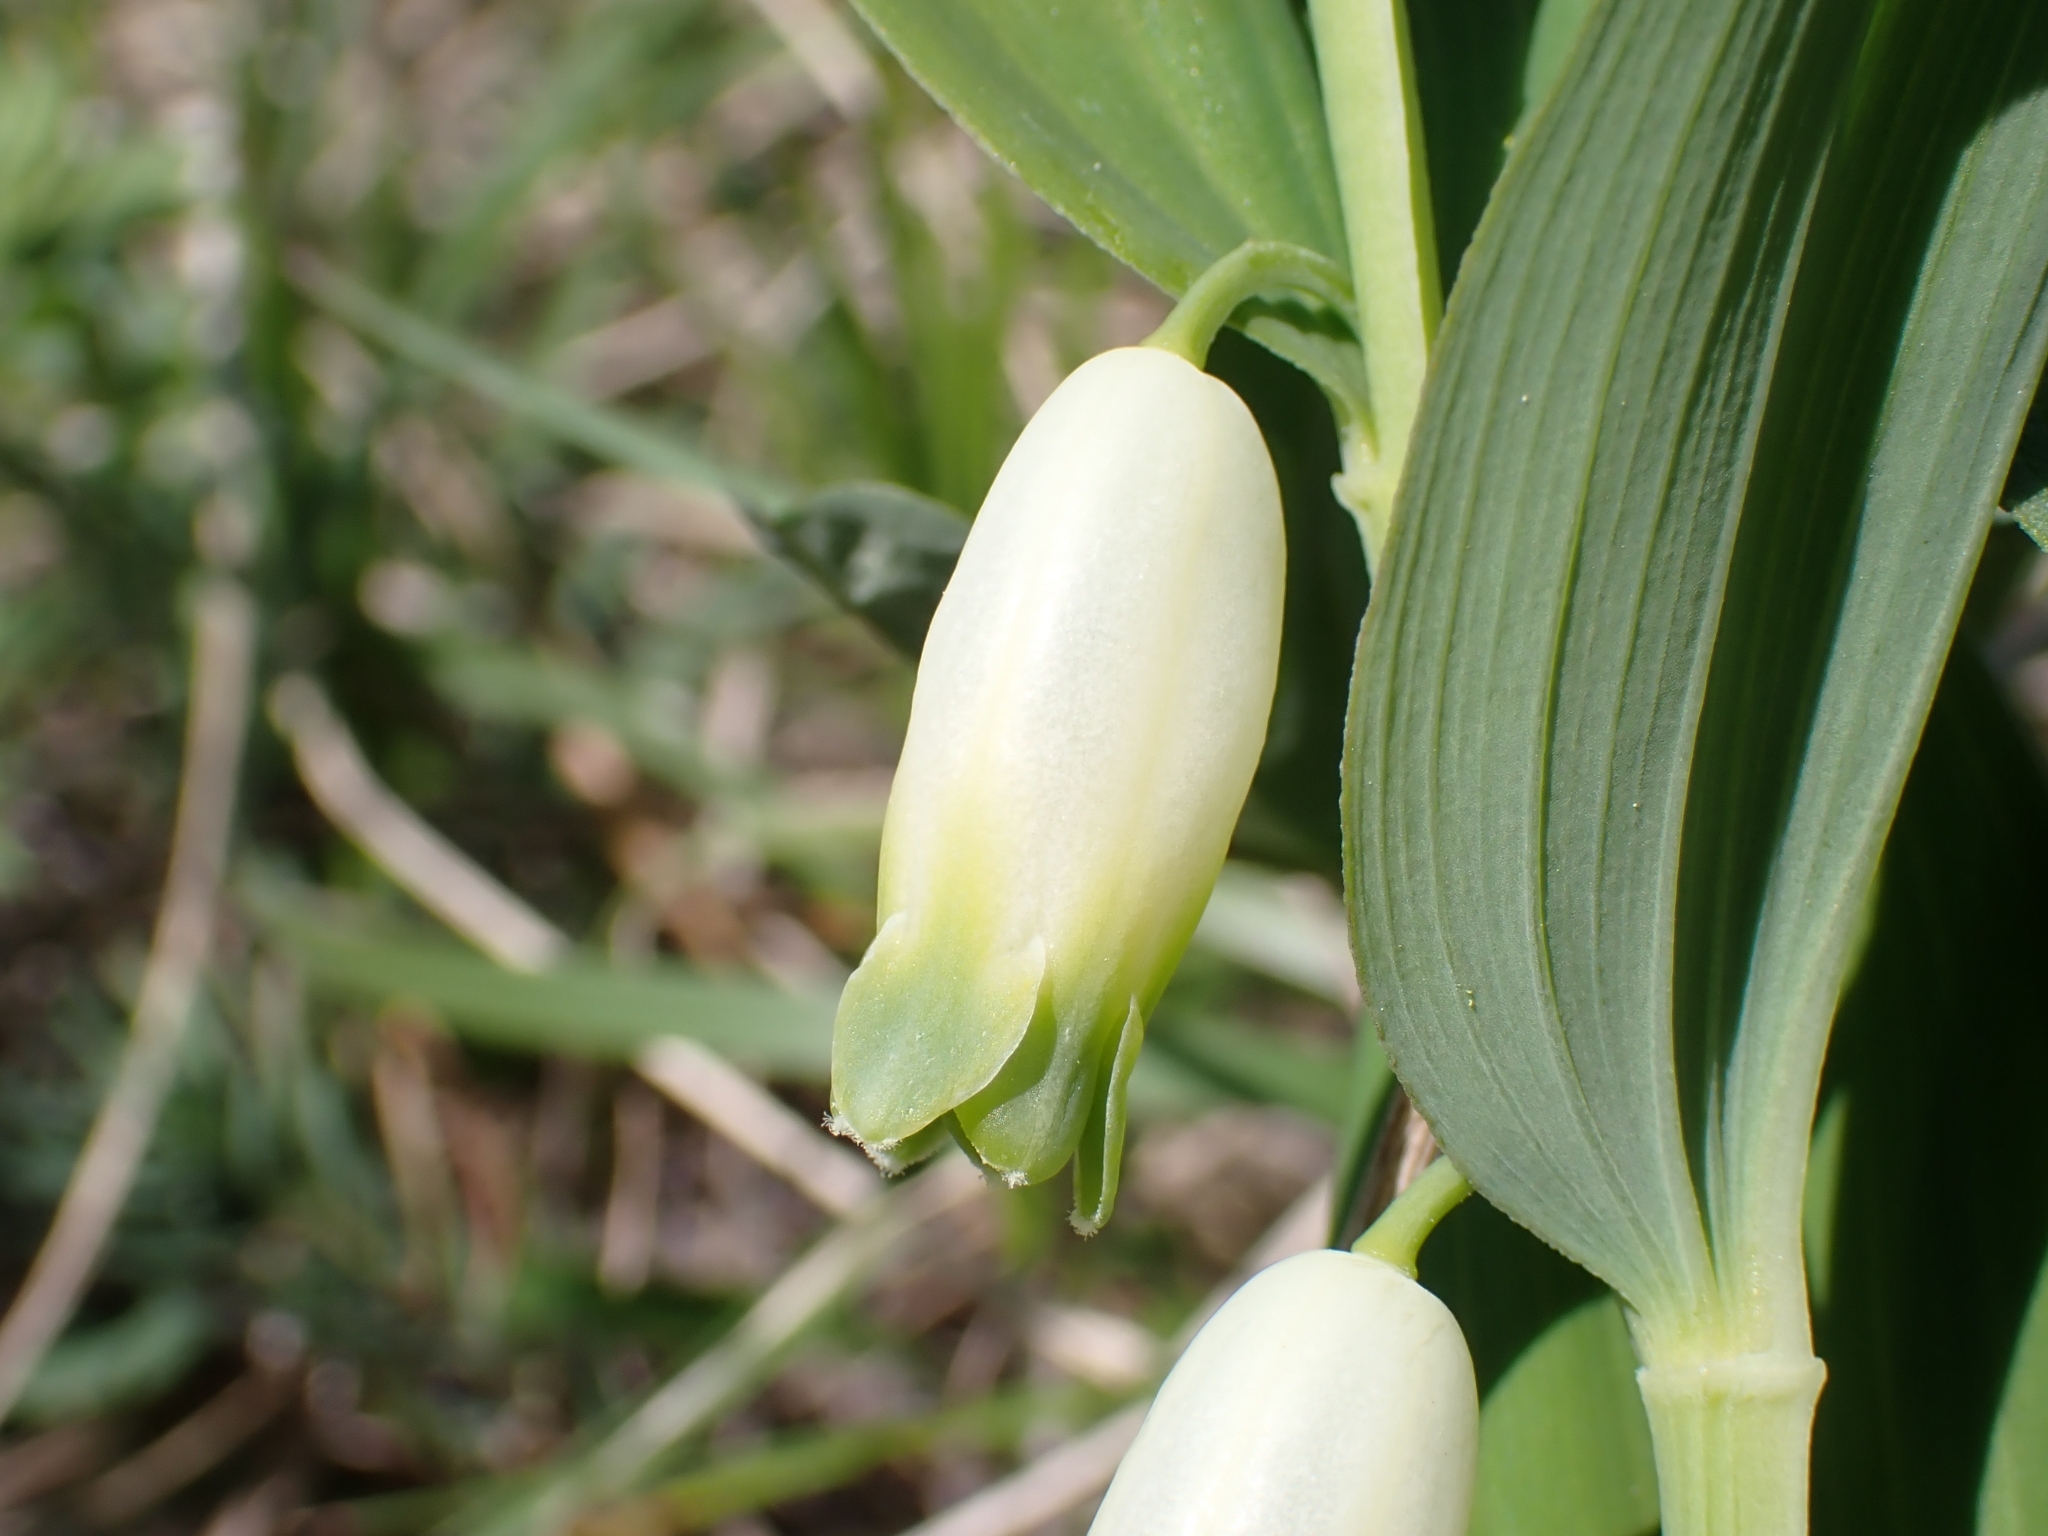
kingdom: Plantae
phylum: Tracheophyta
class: Liliopsida
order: Asparagales
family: Asparagaceae
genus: Polygonatum
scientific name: Polygonatum odoratum
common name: Angular solomon's-seal
